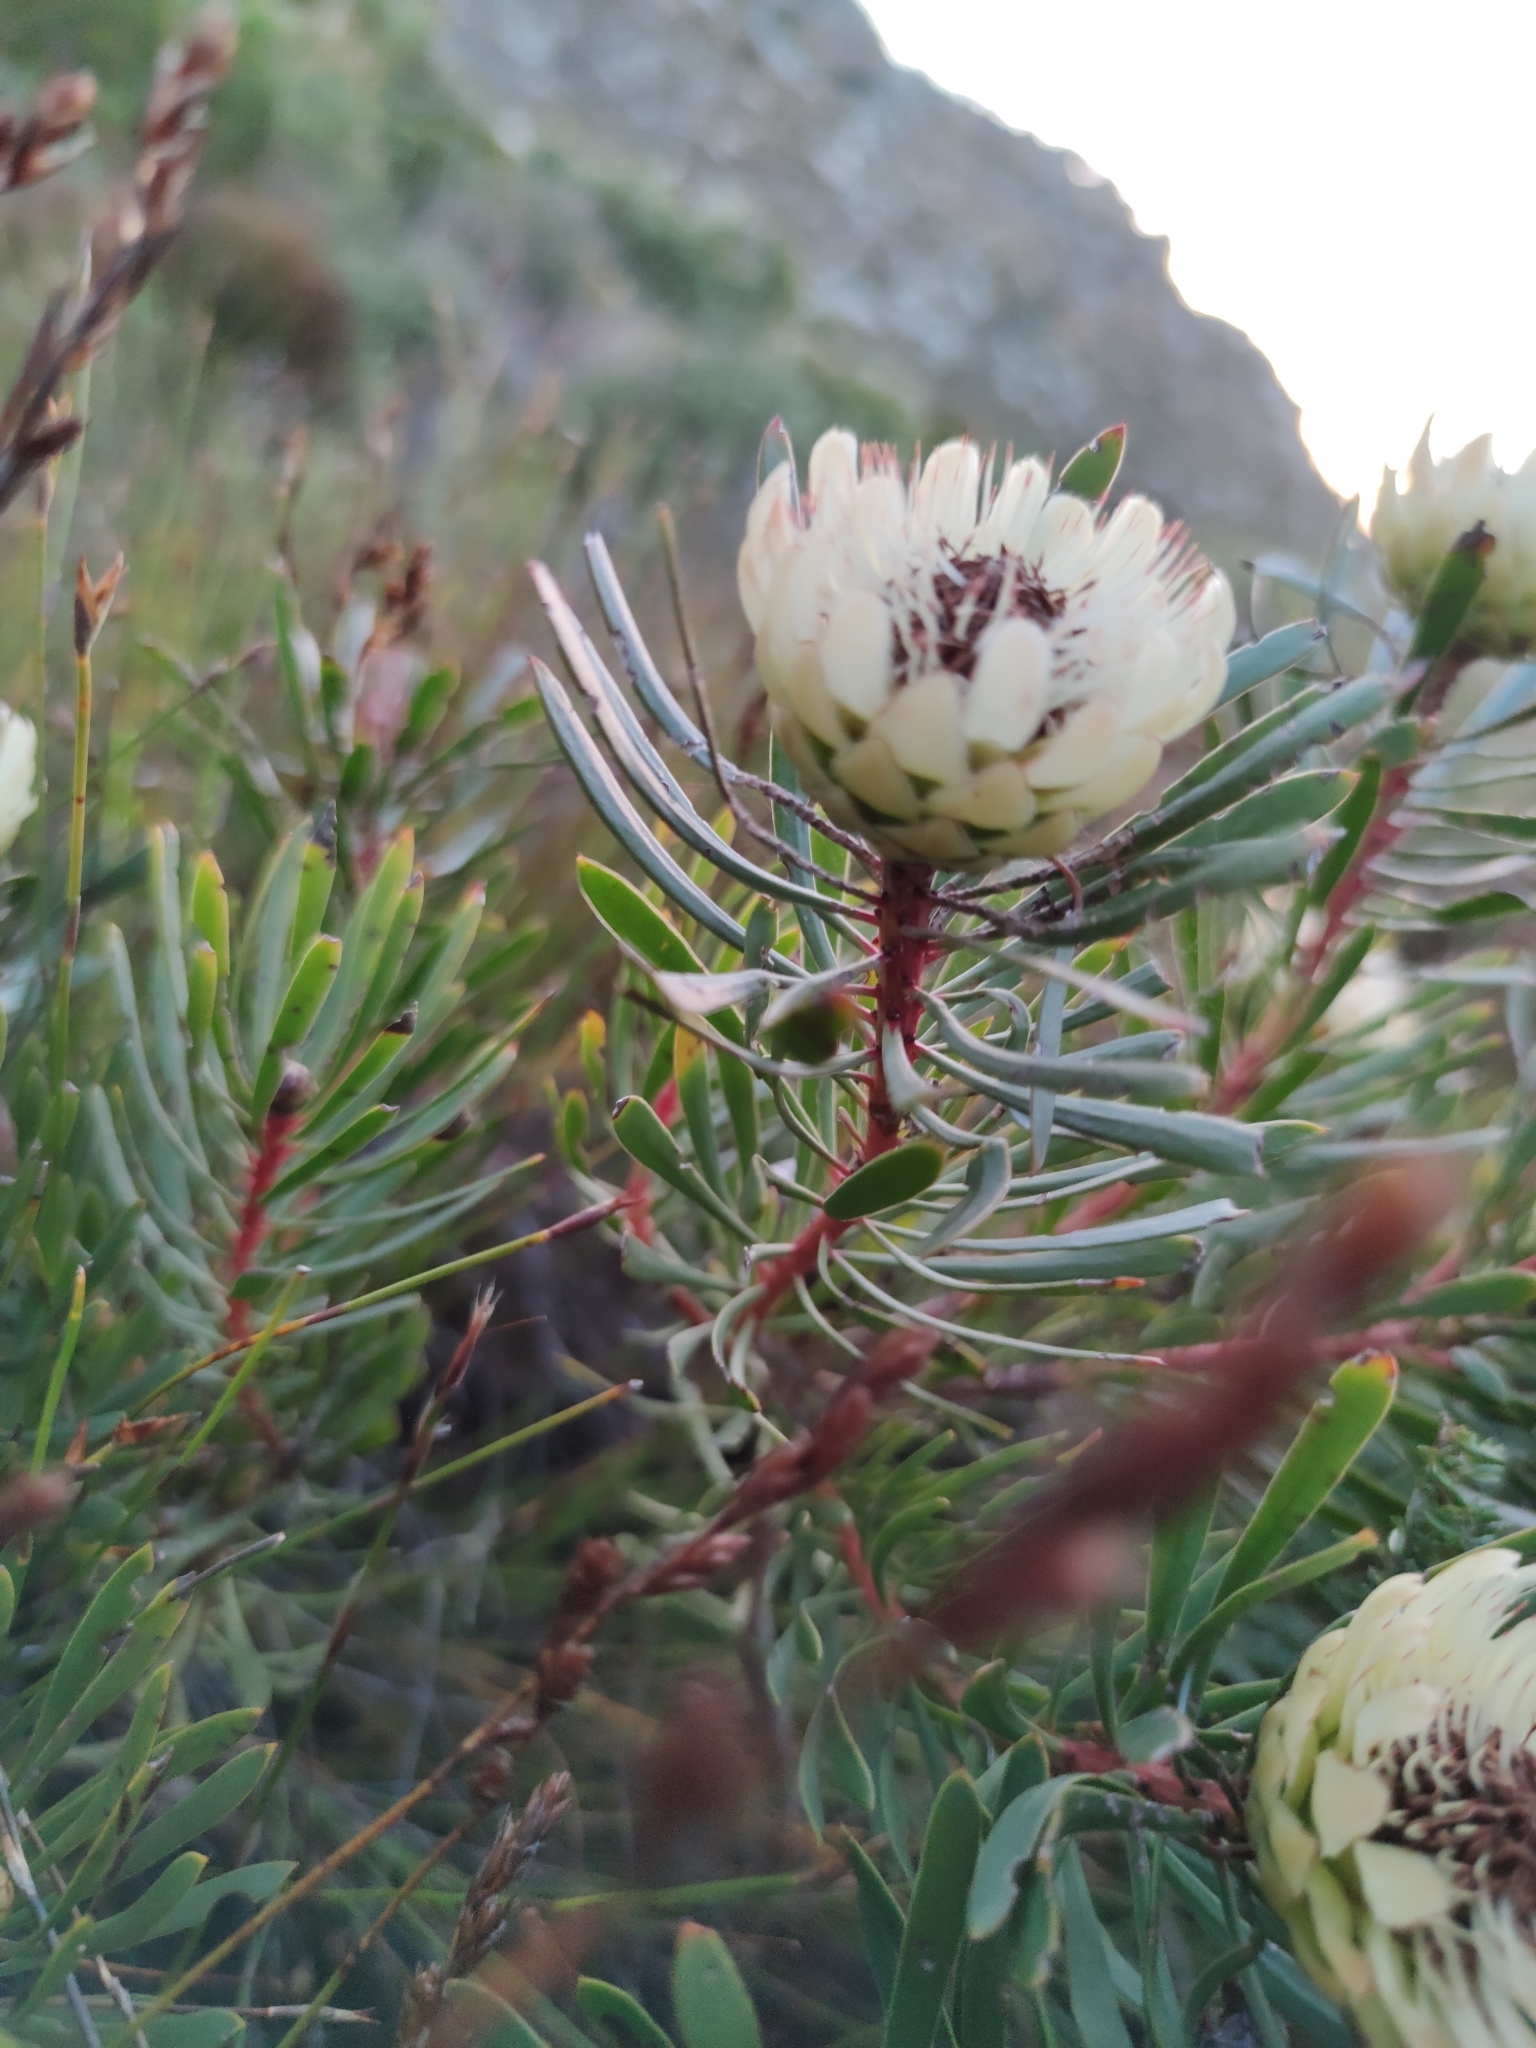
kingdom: Plantae
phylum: Tracheophyta
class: Magnoliopsida
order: Proteales
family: Proteaceae
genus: Protea
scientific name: Protea scolymocephala
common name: Thistle sugarbush
